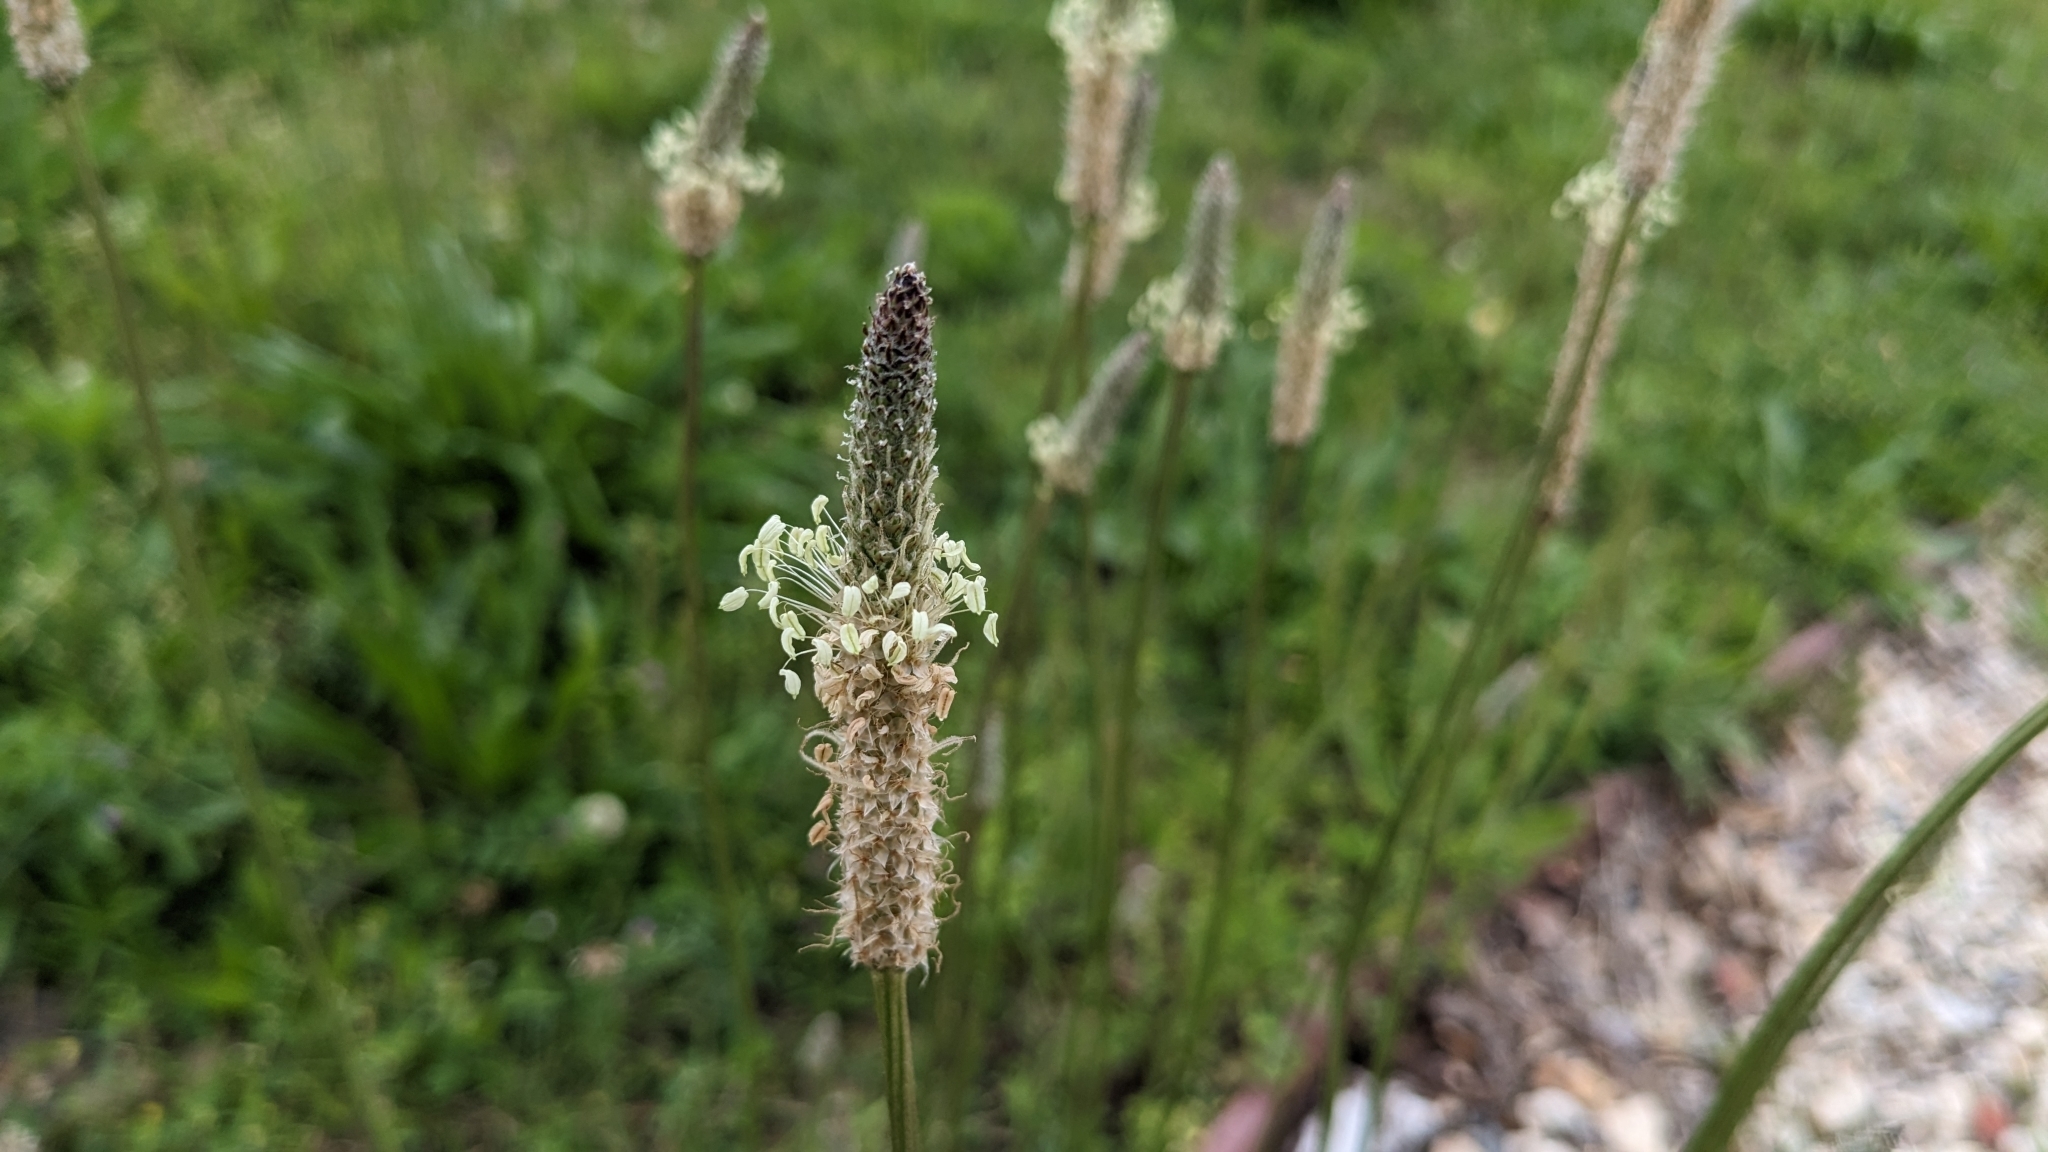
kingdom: Plantae
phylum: Tracheophyta
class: Magnoliopsida
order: Lamiales
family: Plantaginaceae
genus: Plantago
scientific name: Plantago lanceolata
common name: Ribwort plantain
